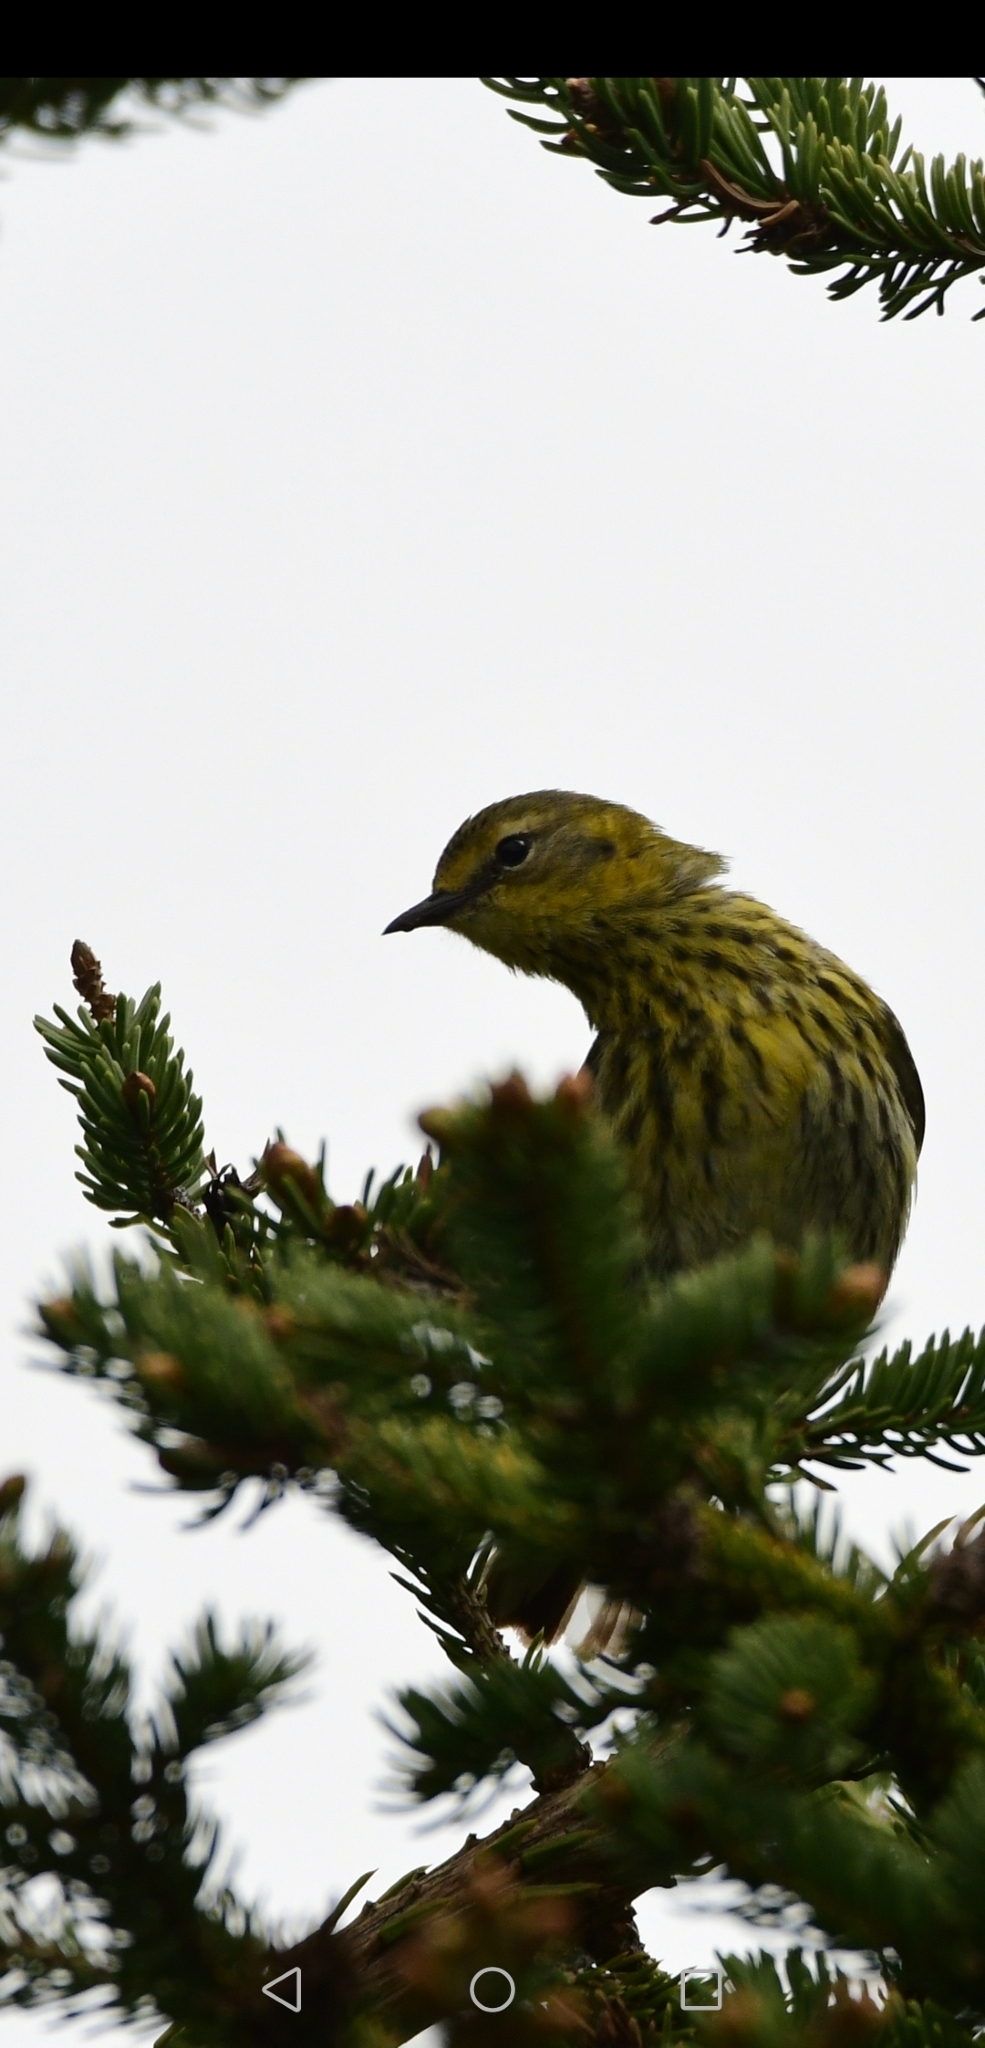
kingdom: Animalia
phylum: Chordata
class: Aves
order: Passeriformes
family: Parulidae
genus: Setophaga
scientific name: Setophaga magnolia
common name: Magnolia warbler
